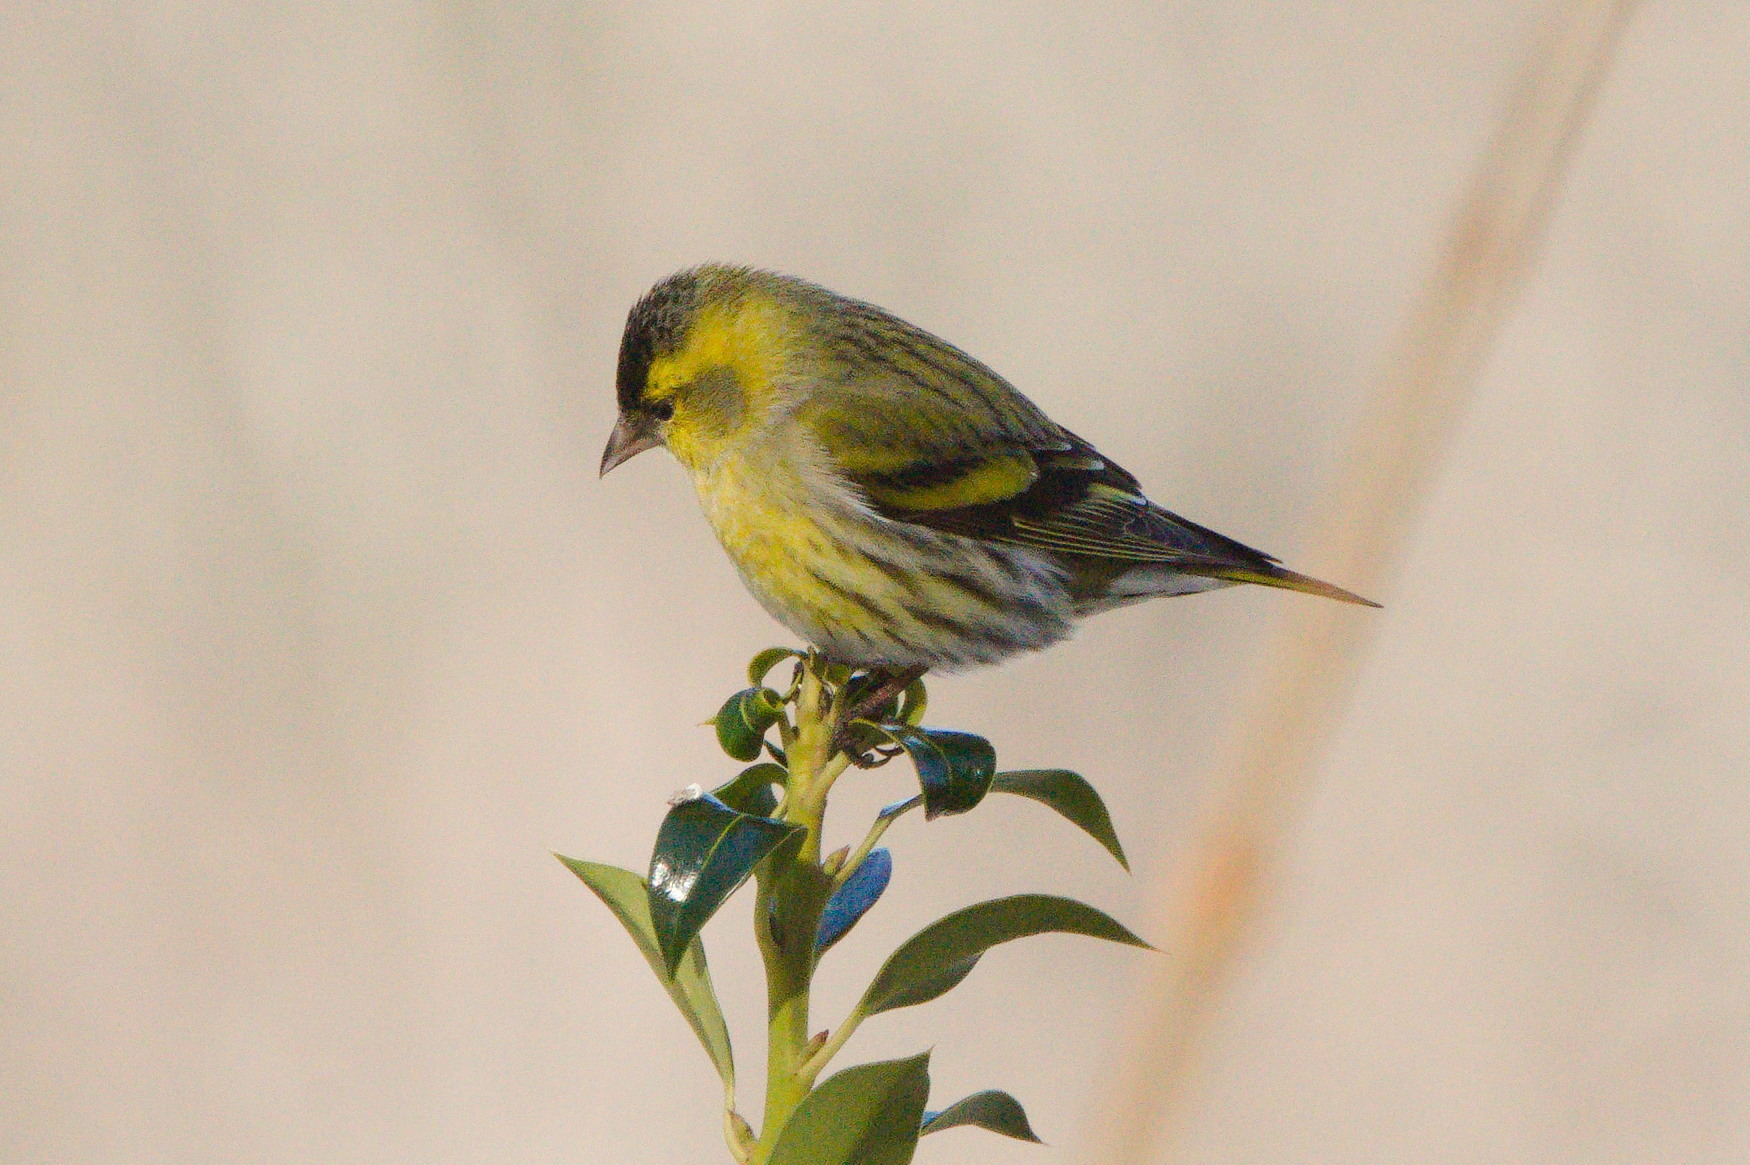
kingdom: Animalia
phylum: Chordata
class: Aves
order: Passeriformes
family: Fringillidae
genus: Spinus
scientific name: Spinus spinus
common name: Eurasian siskin
